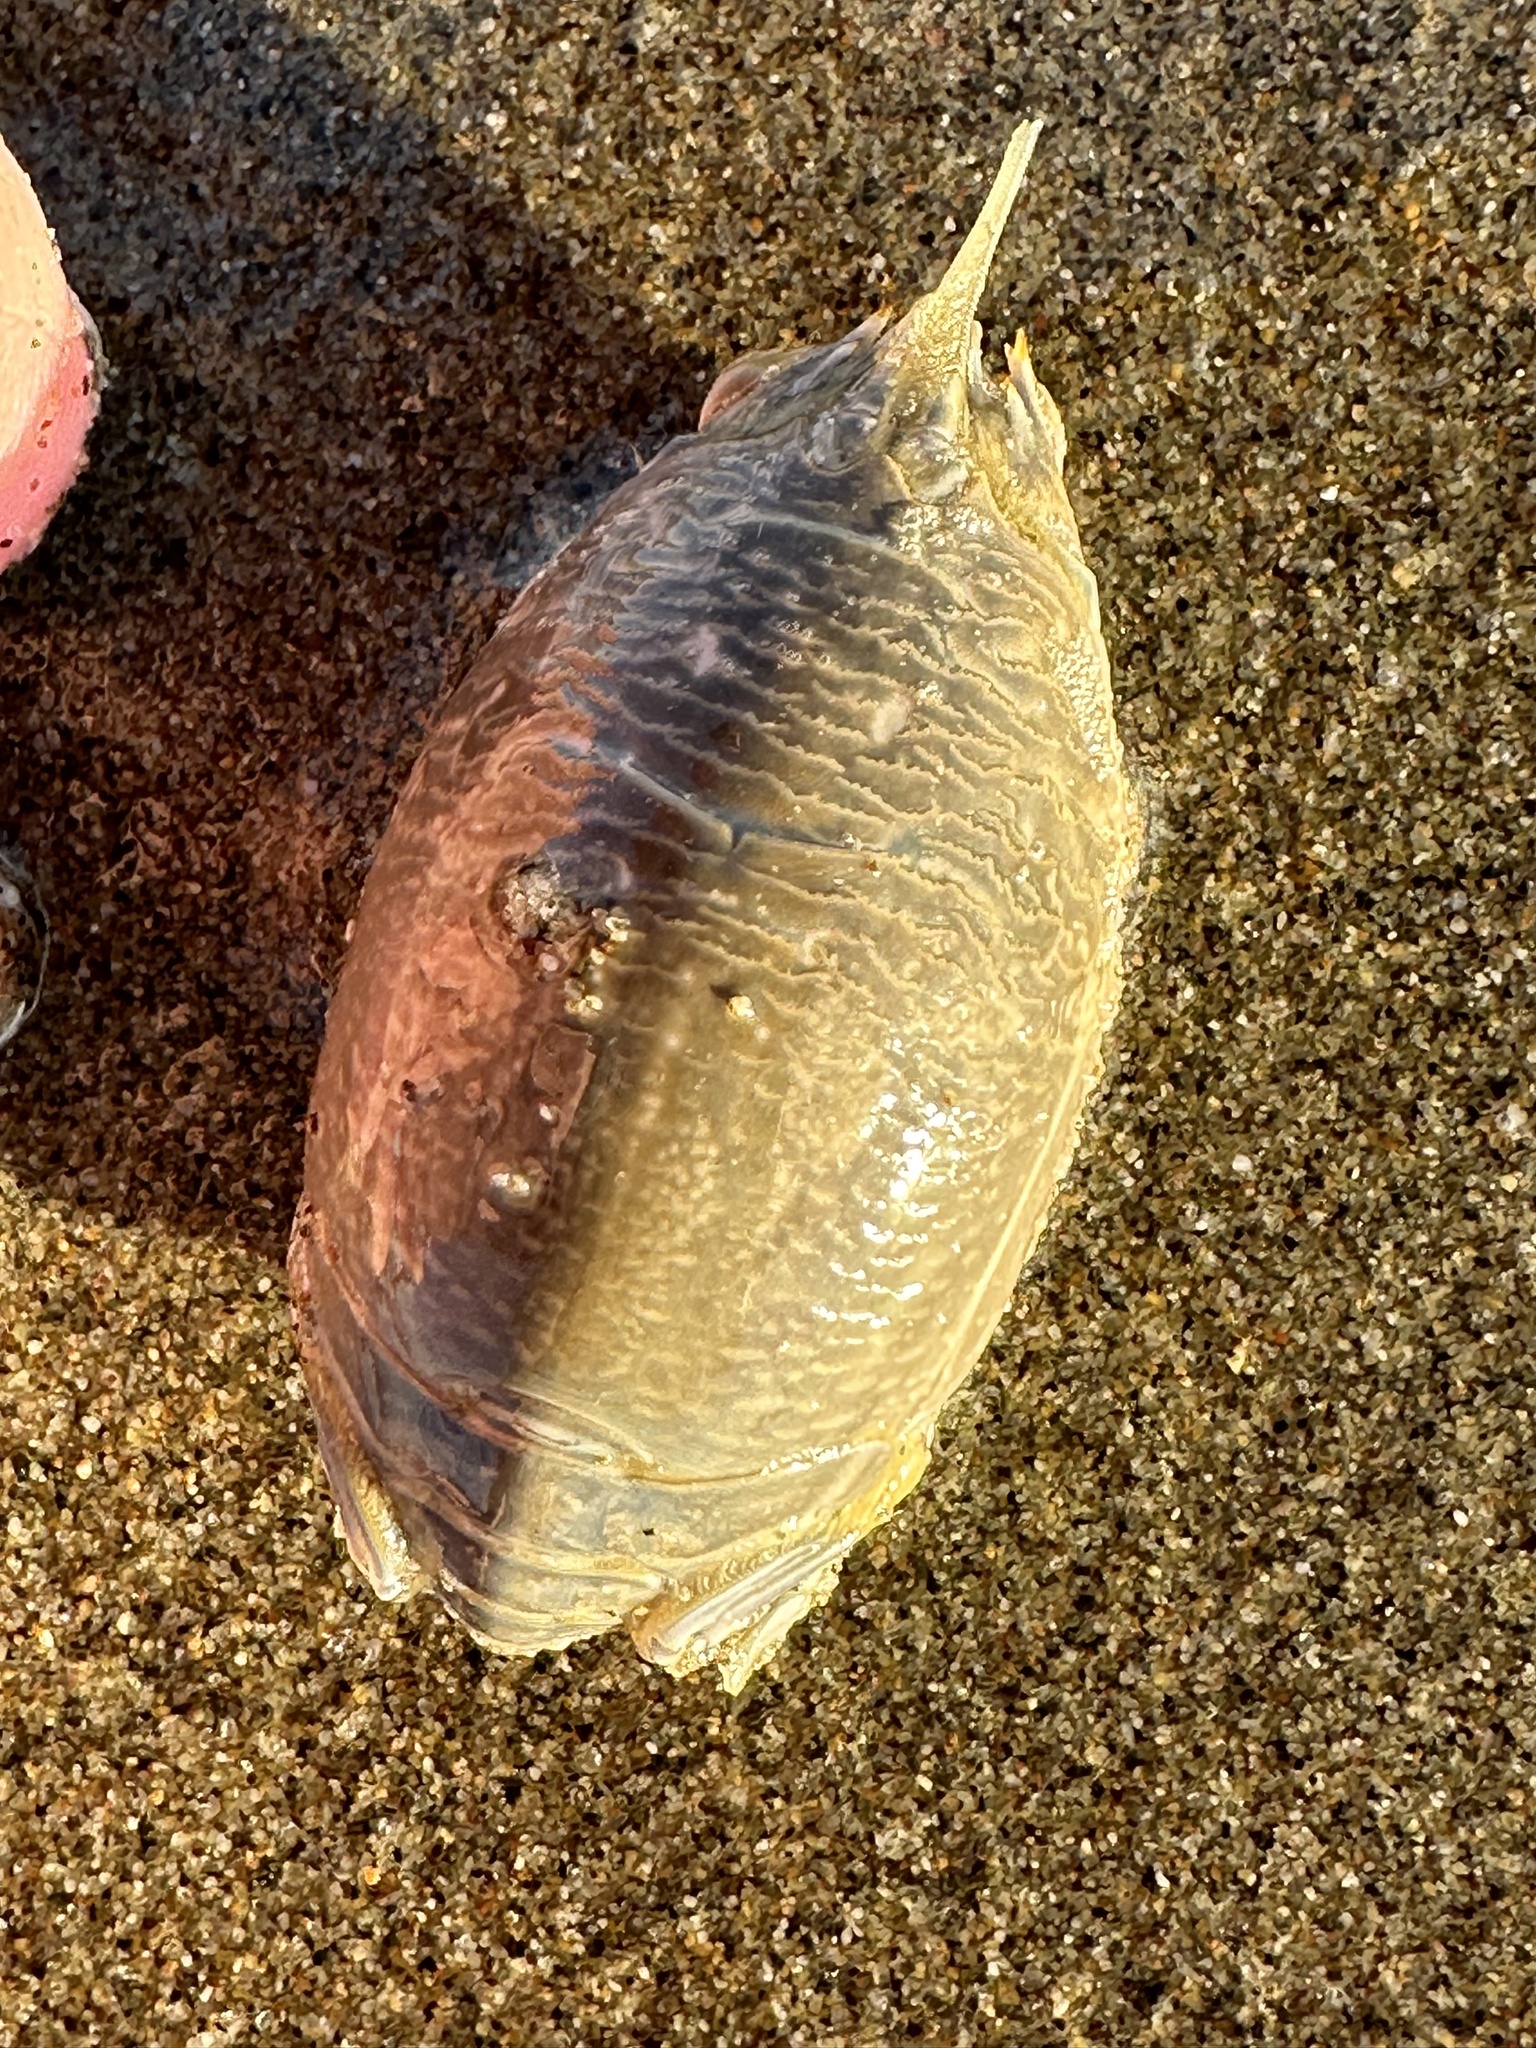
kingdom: Animalia
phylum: Arthropoda
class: Malacostraca
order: Decapoda
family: Hippidae
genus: Emerita
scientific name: Emerita analoga
